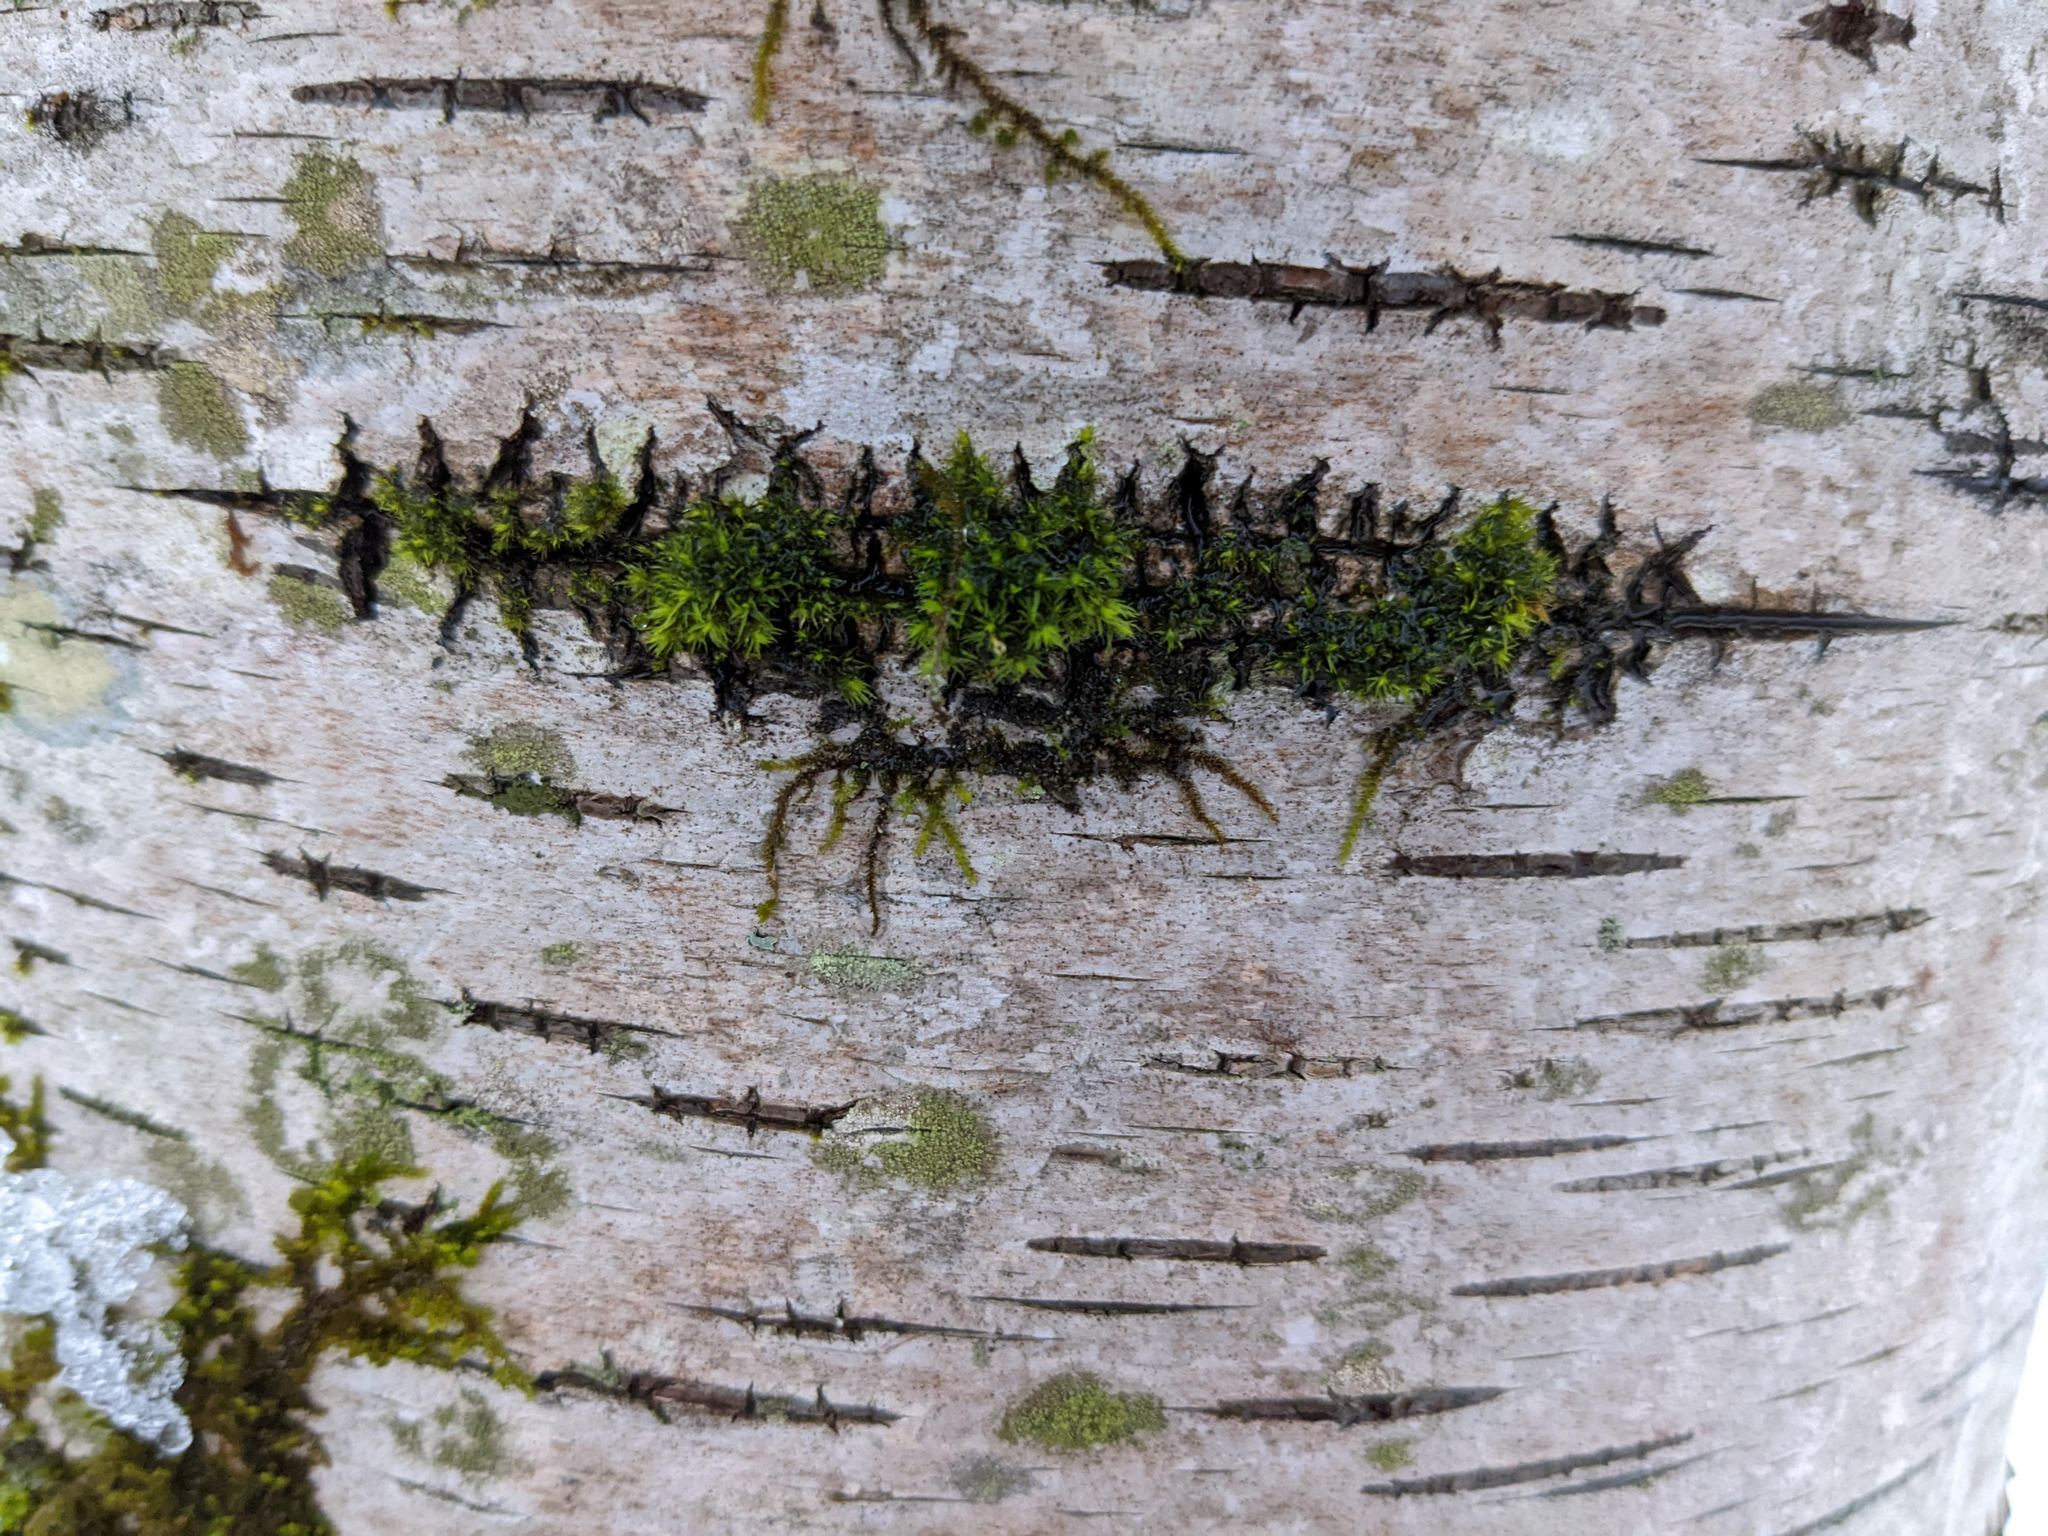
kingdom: Plantae
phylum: Bryophyta
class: Bryopsida
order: Orthotrichales
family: Orthotrichaceae
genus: Ulota
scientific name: Ulota crispa
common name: Crisped pincushion moss
